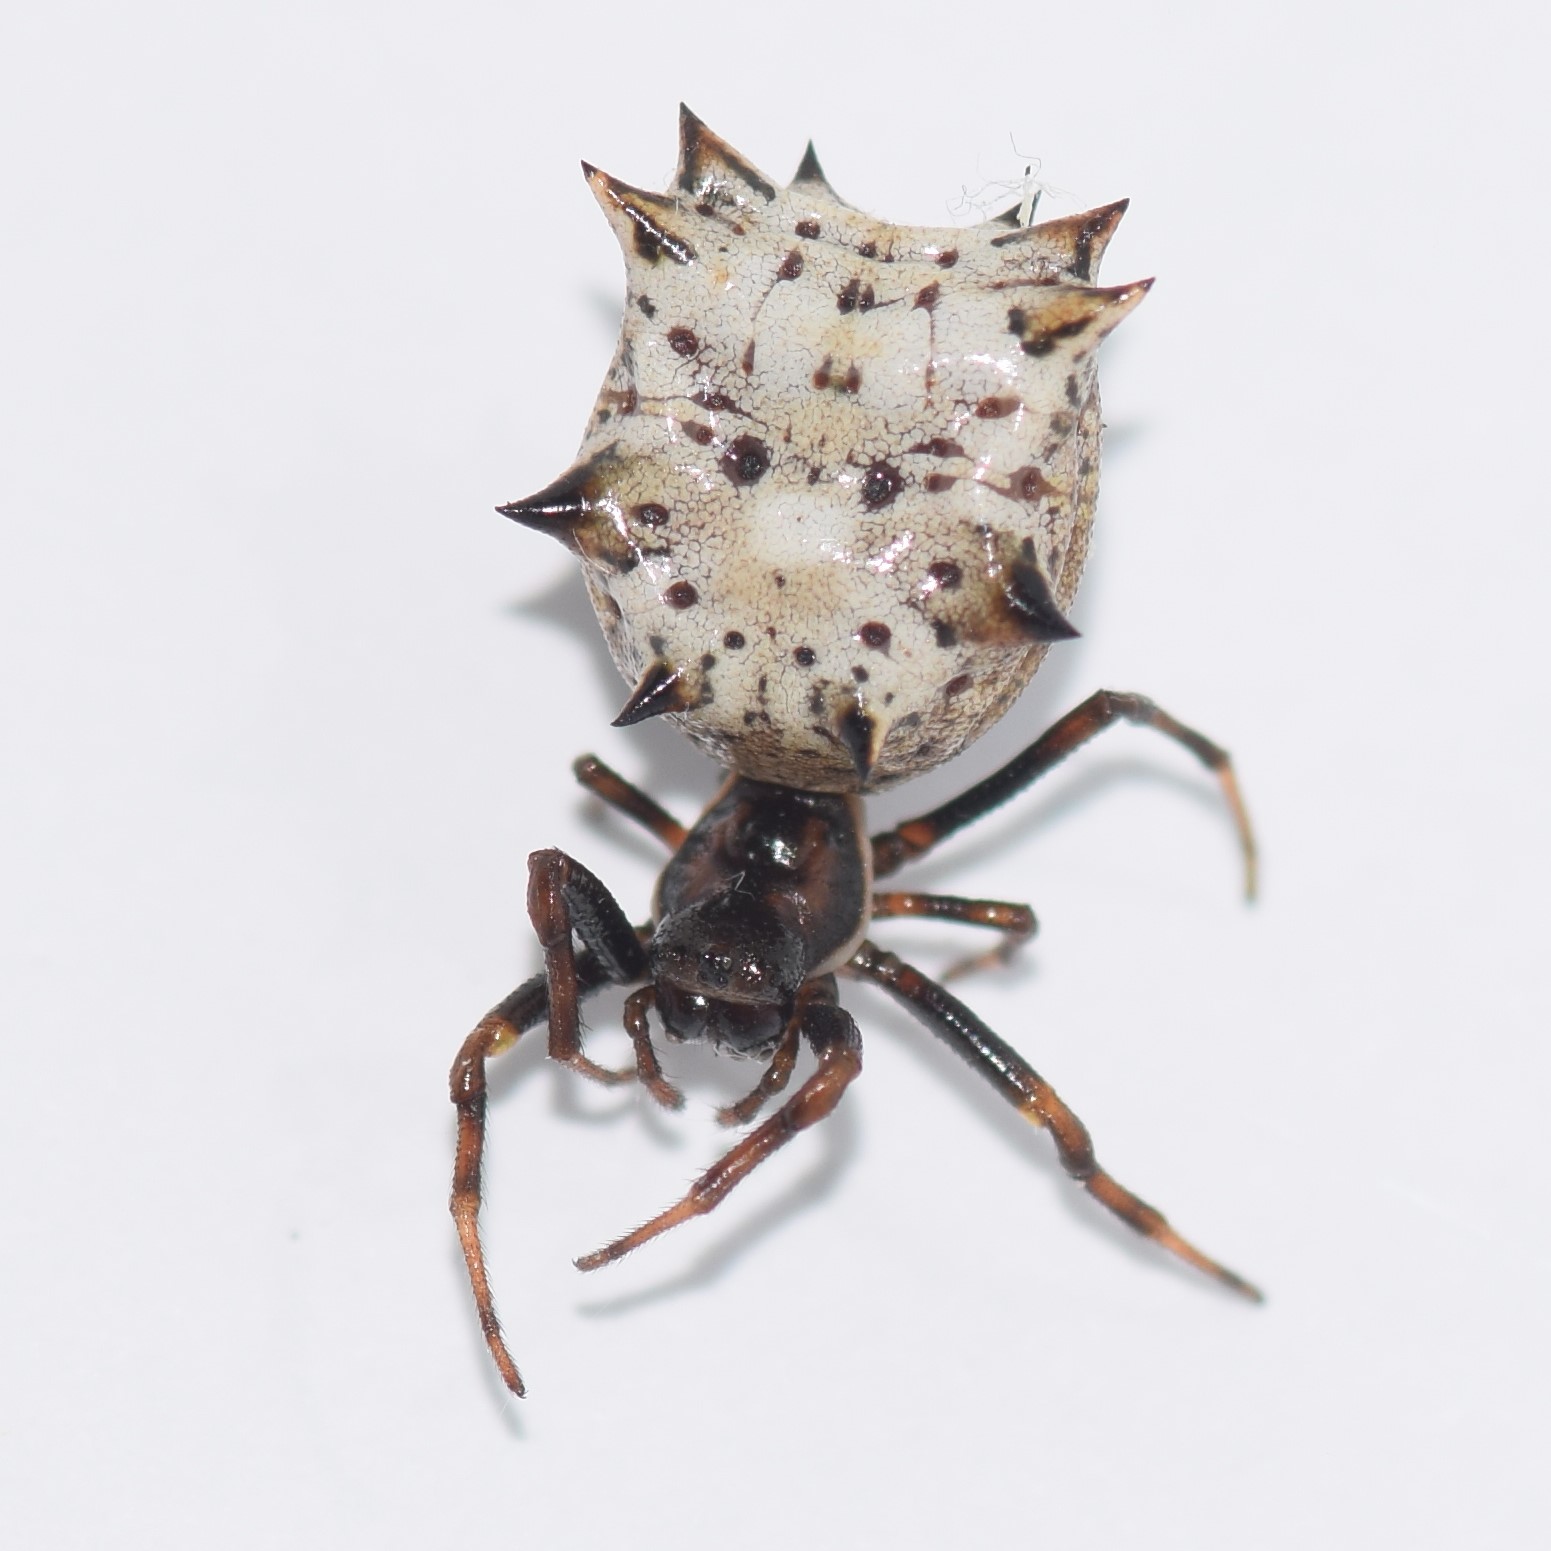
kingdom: Animalia
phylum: Arthropoda
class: Arachnida
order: Araneae
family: Araneidae
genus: Micrathena
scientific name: Micrathena gracilis
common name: Orb weavers
